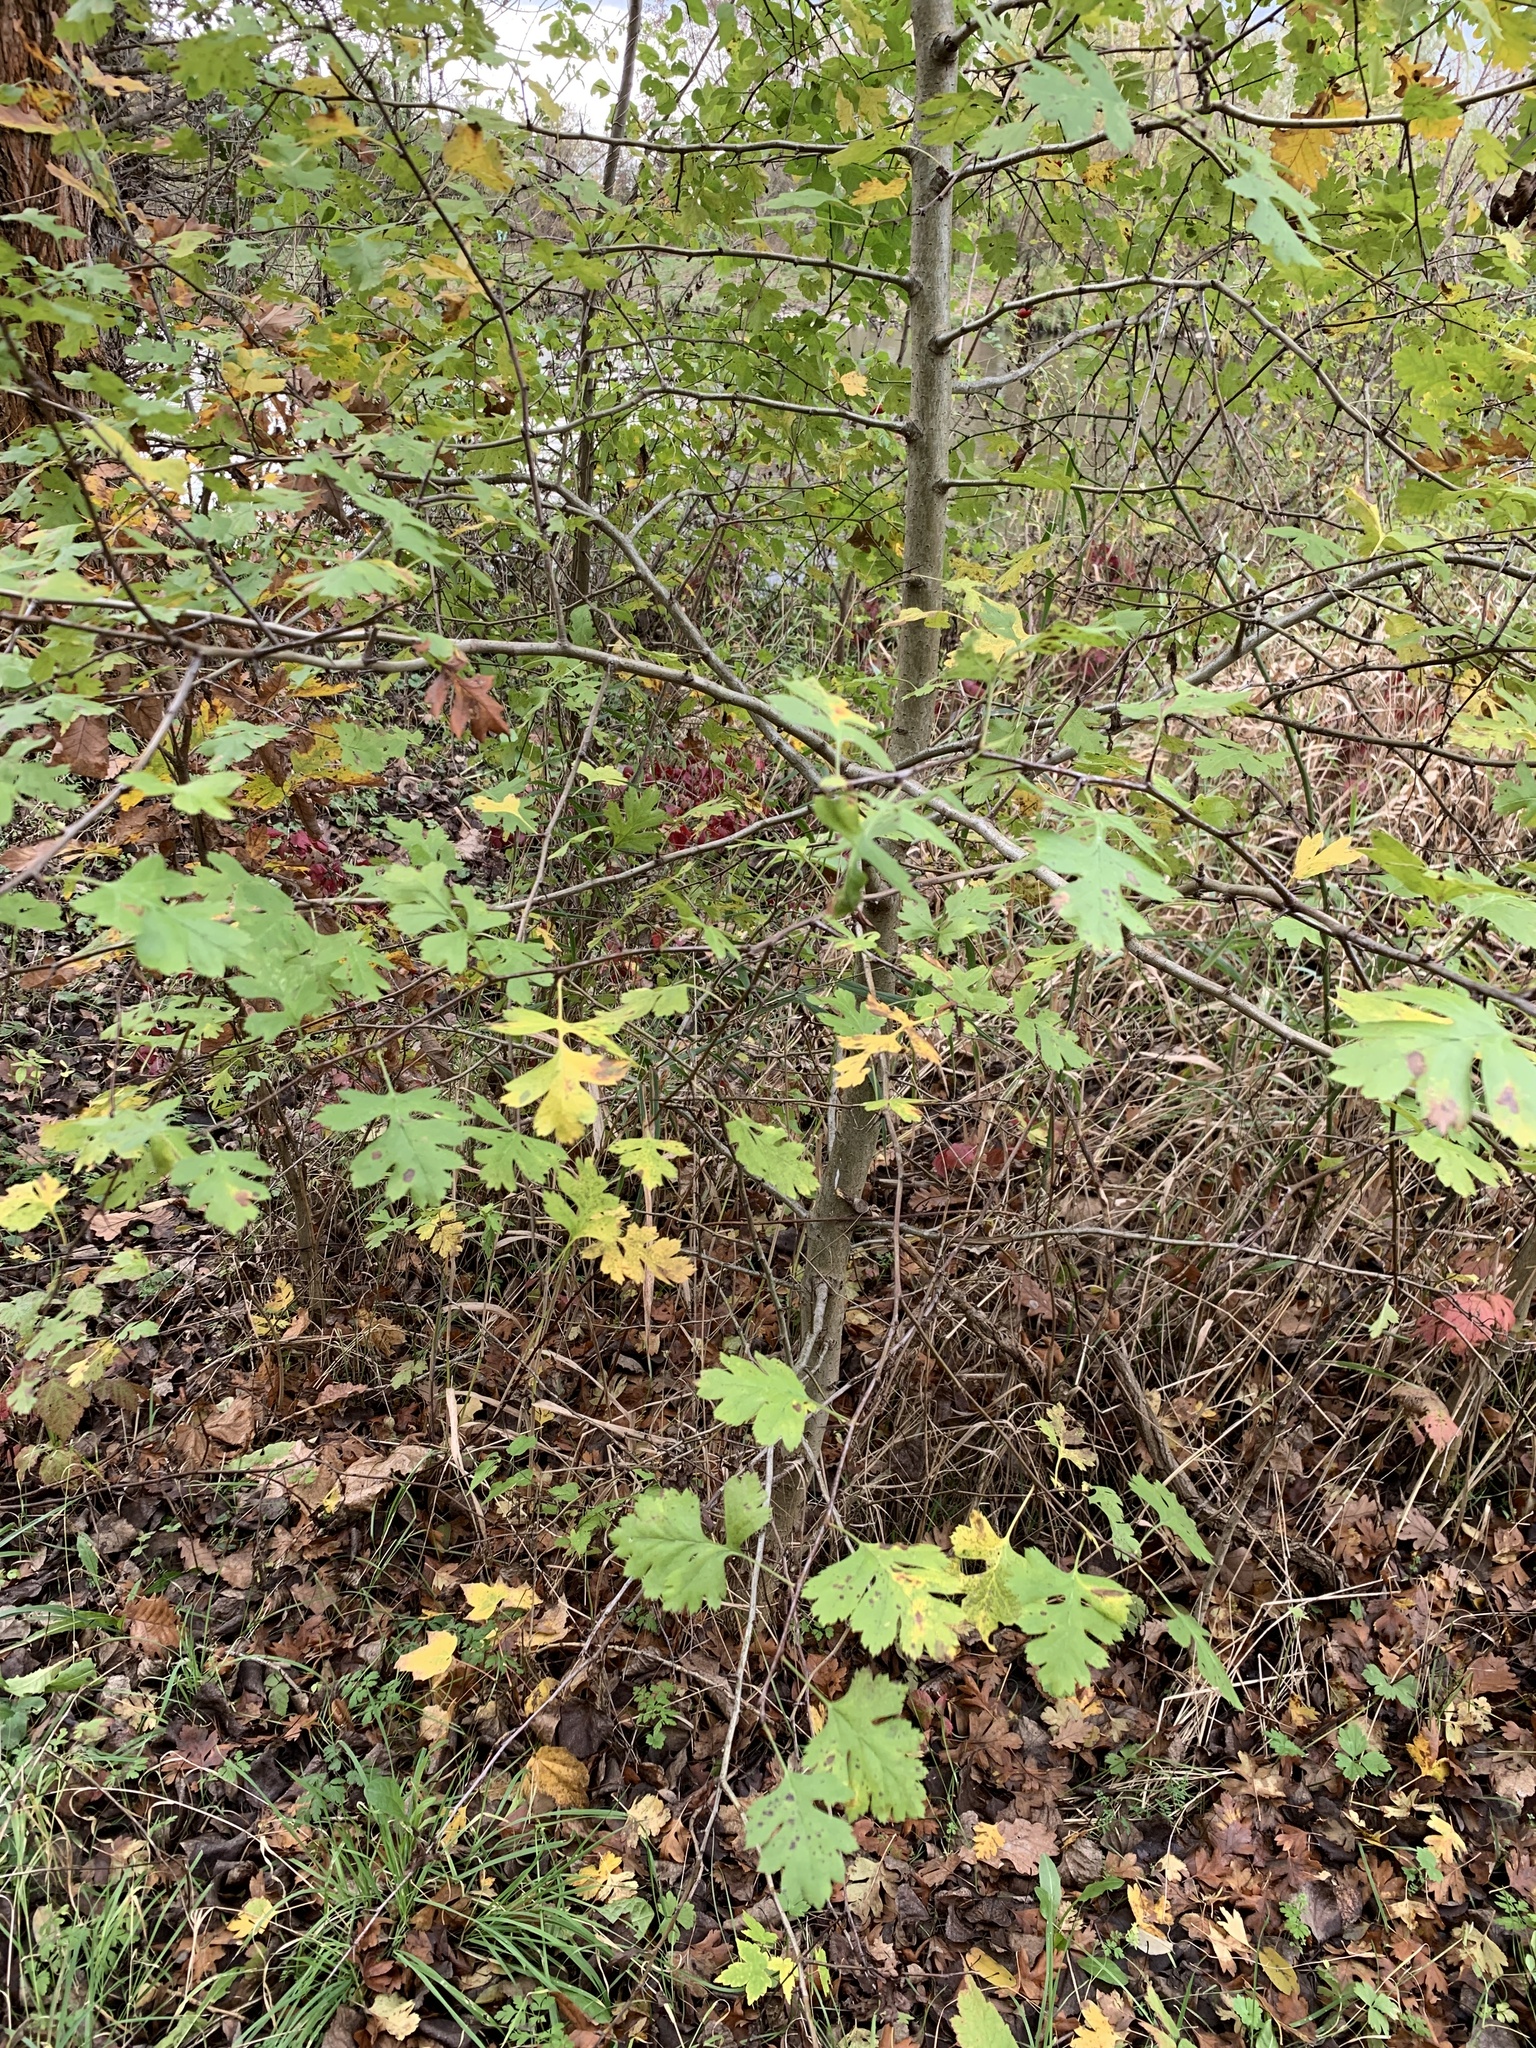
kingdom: Plantae
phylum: Tracheophyta
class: Magnoliopsida
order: Rosales
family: Rosaceae
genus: Crataegus
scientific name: Crataegus monogyna
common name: Hawthorn
